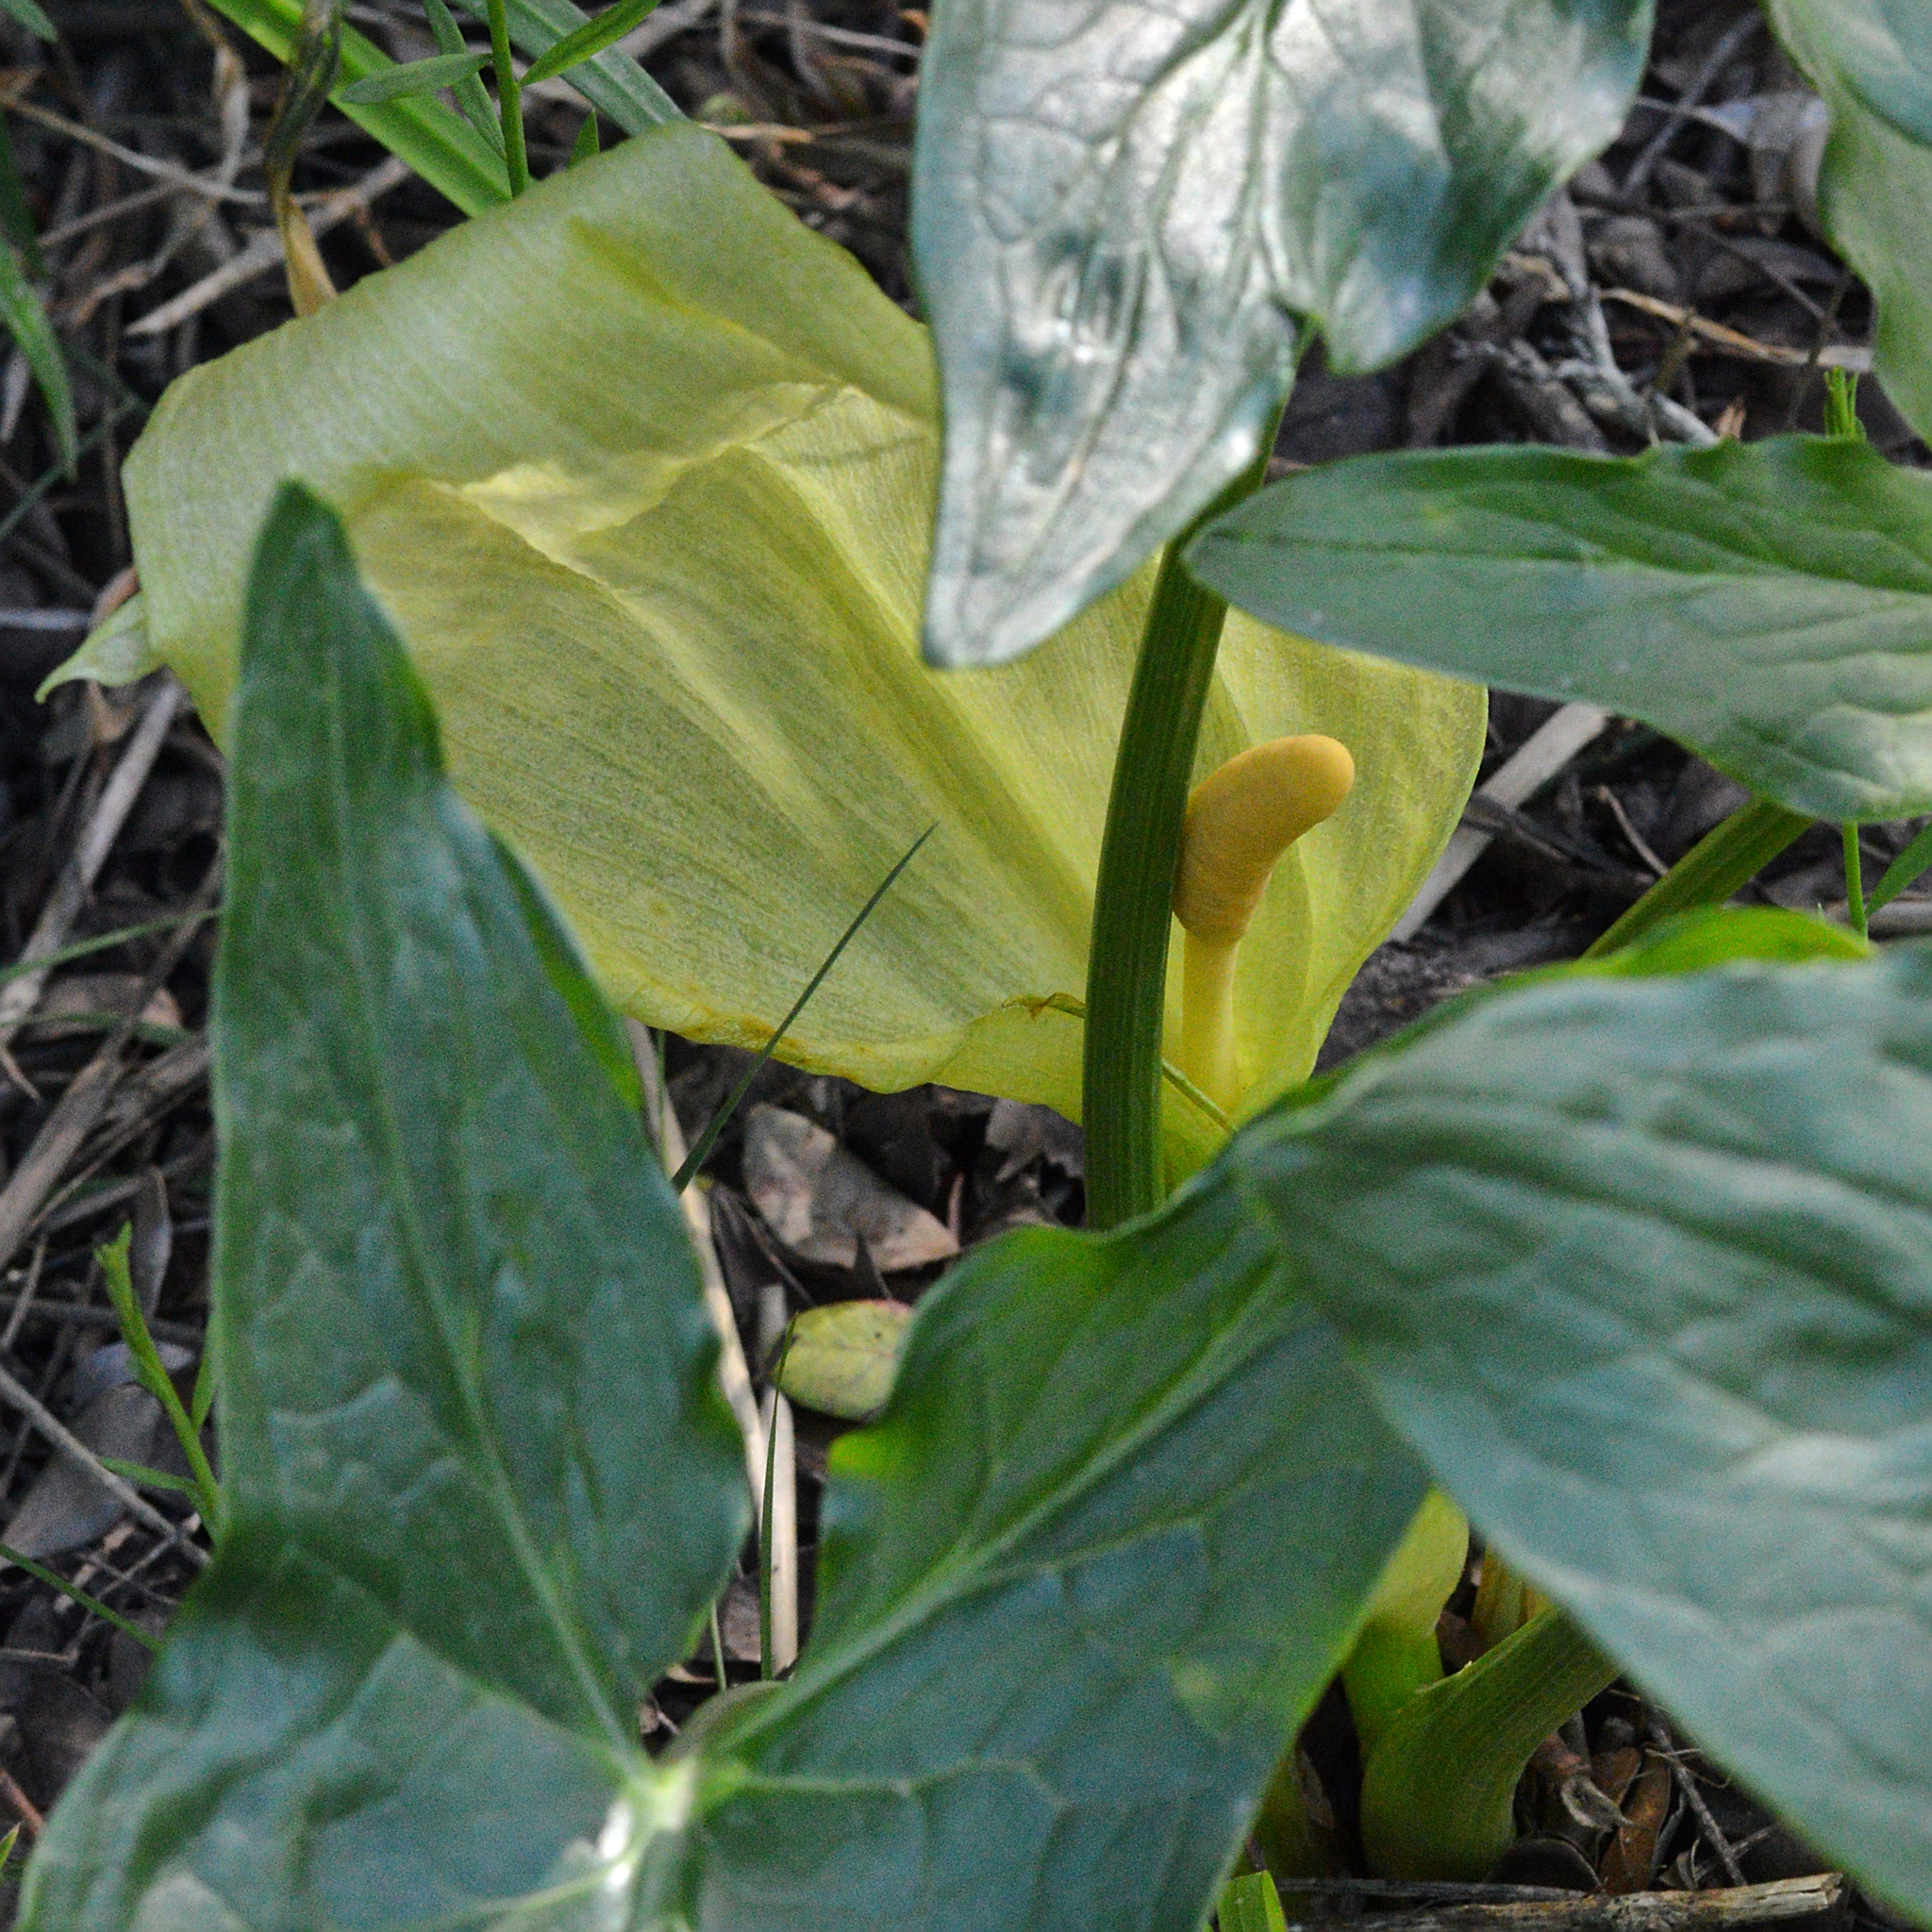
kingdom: Plantae
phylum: Tracheophyta
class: Liliopsida
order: Alismatales
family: Araceae
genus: Arum
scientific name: Arum italicum
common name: Italian lords-and-ladies
